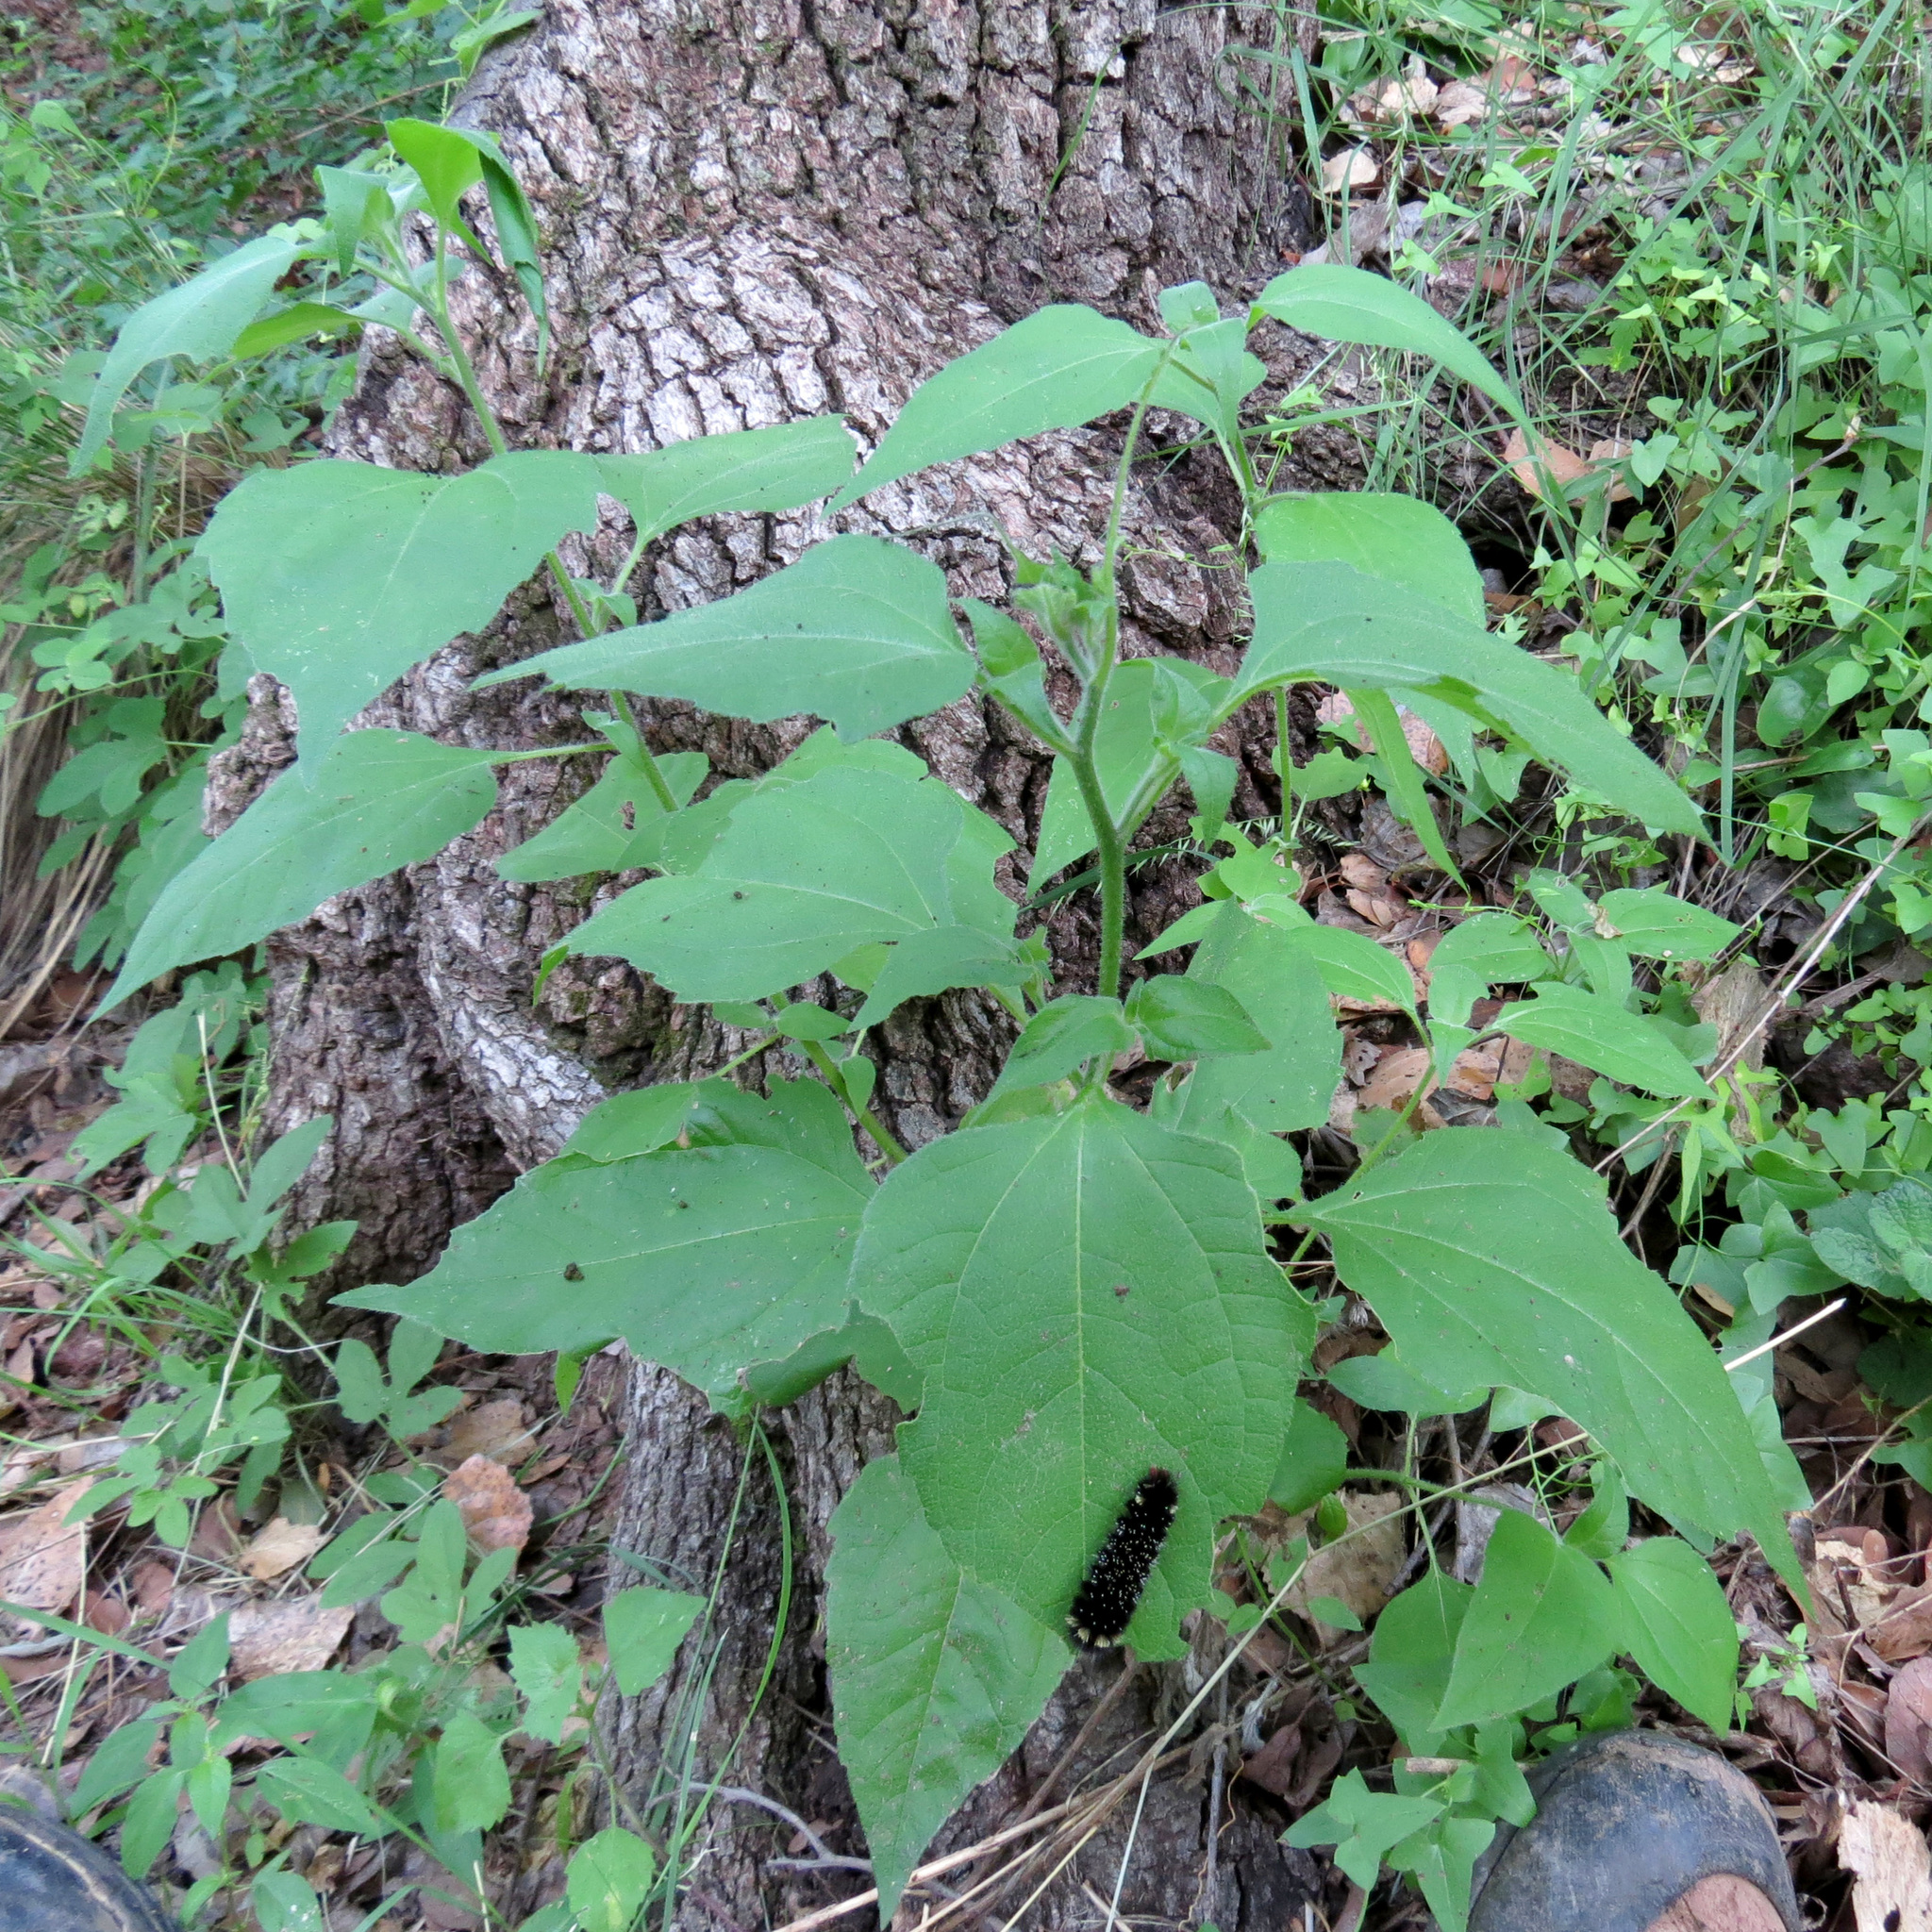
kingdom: Plantae
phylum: Tracheophyta
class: Magnoliopsida
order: Asterales
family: Asteraceae
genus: Viguiera
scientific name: Viguiera dentata
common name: Toothleaf
